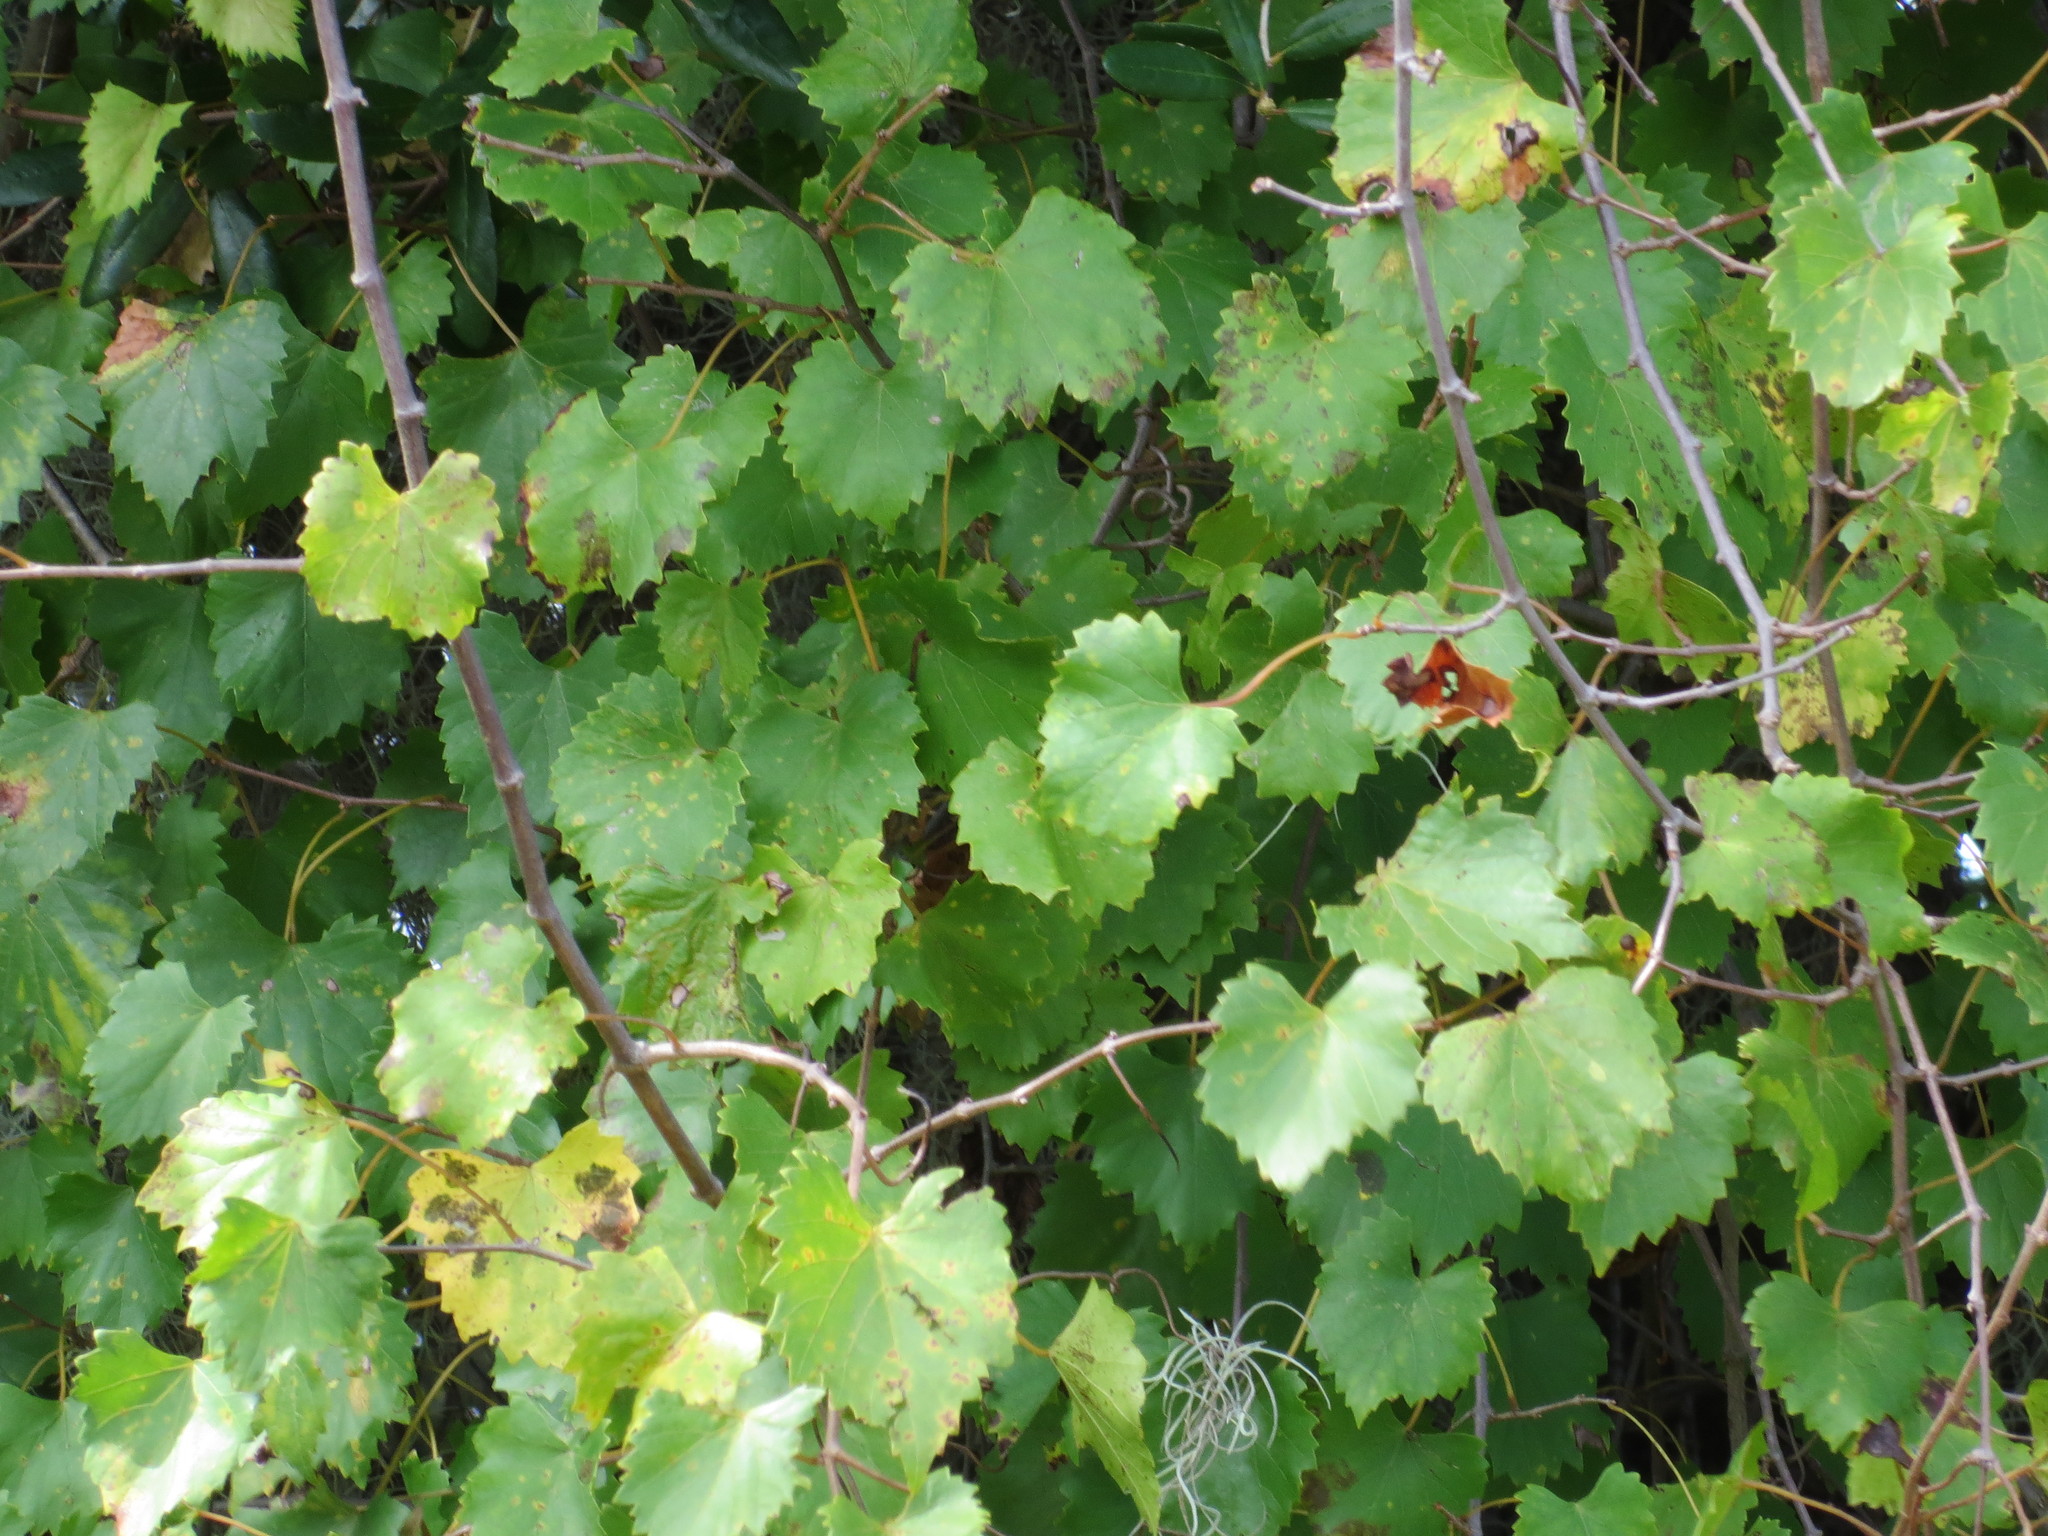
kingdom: Plantae
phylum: Tracheophyta
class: Magnoliopsida
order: Vitales
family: Vitaceae
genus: Vitis
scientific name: Vitis rotundifolia
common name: Muscadine grape
